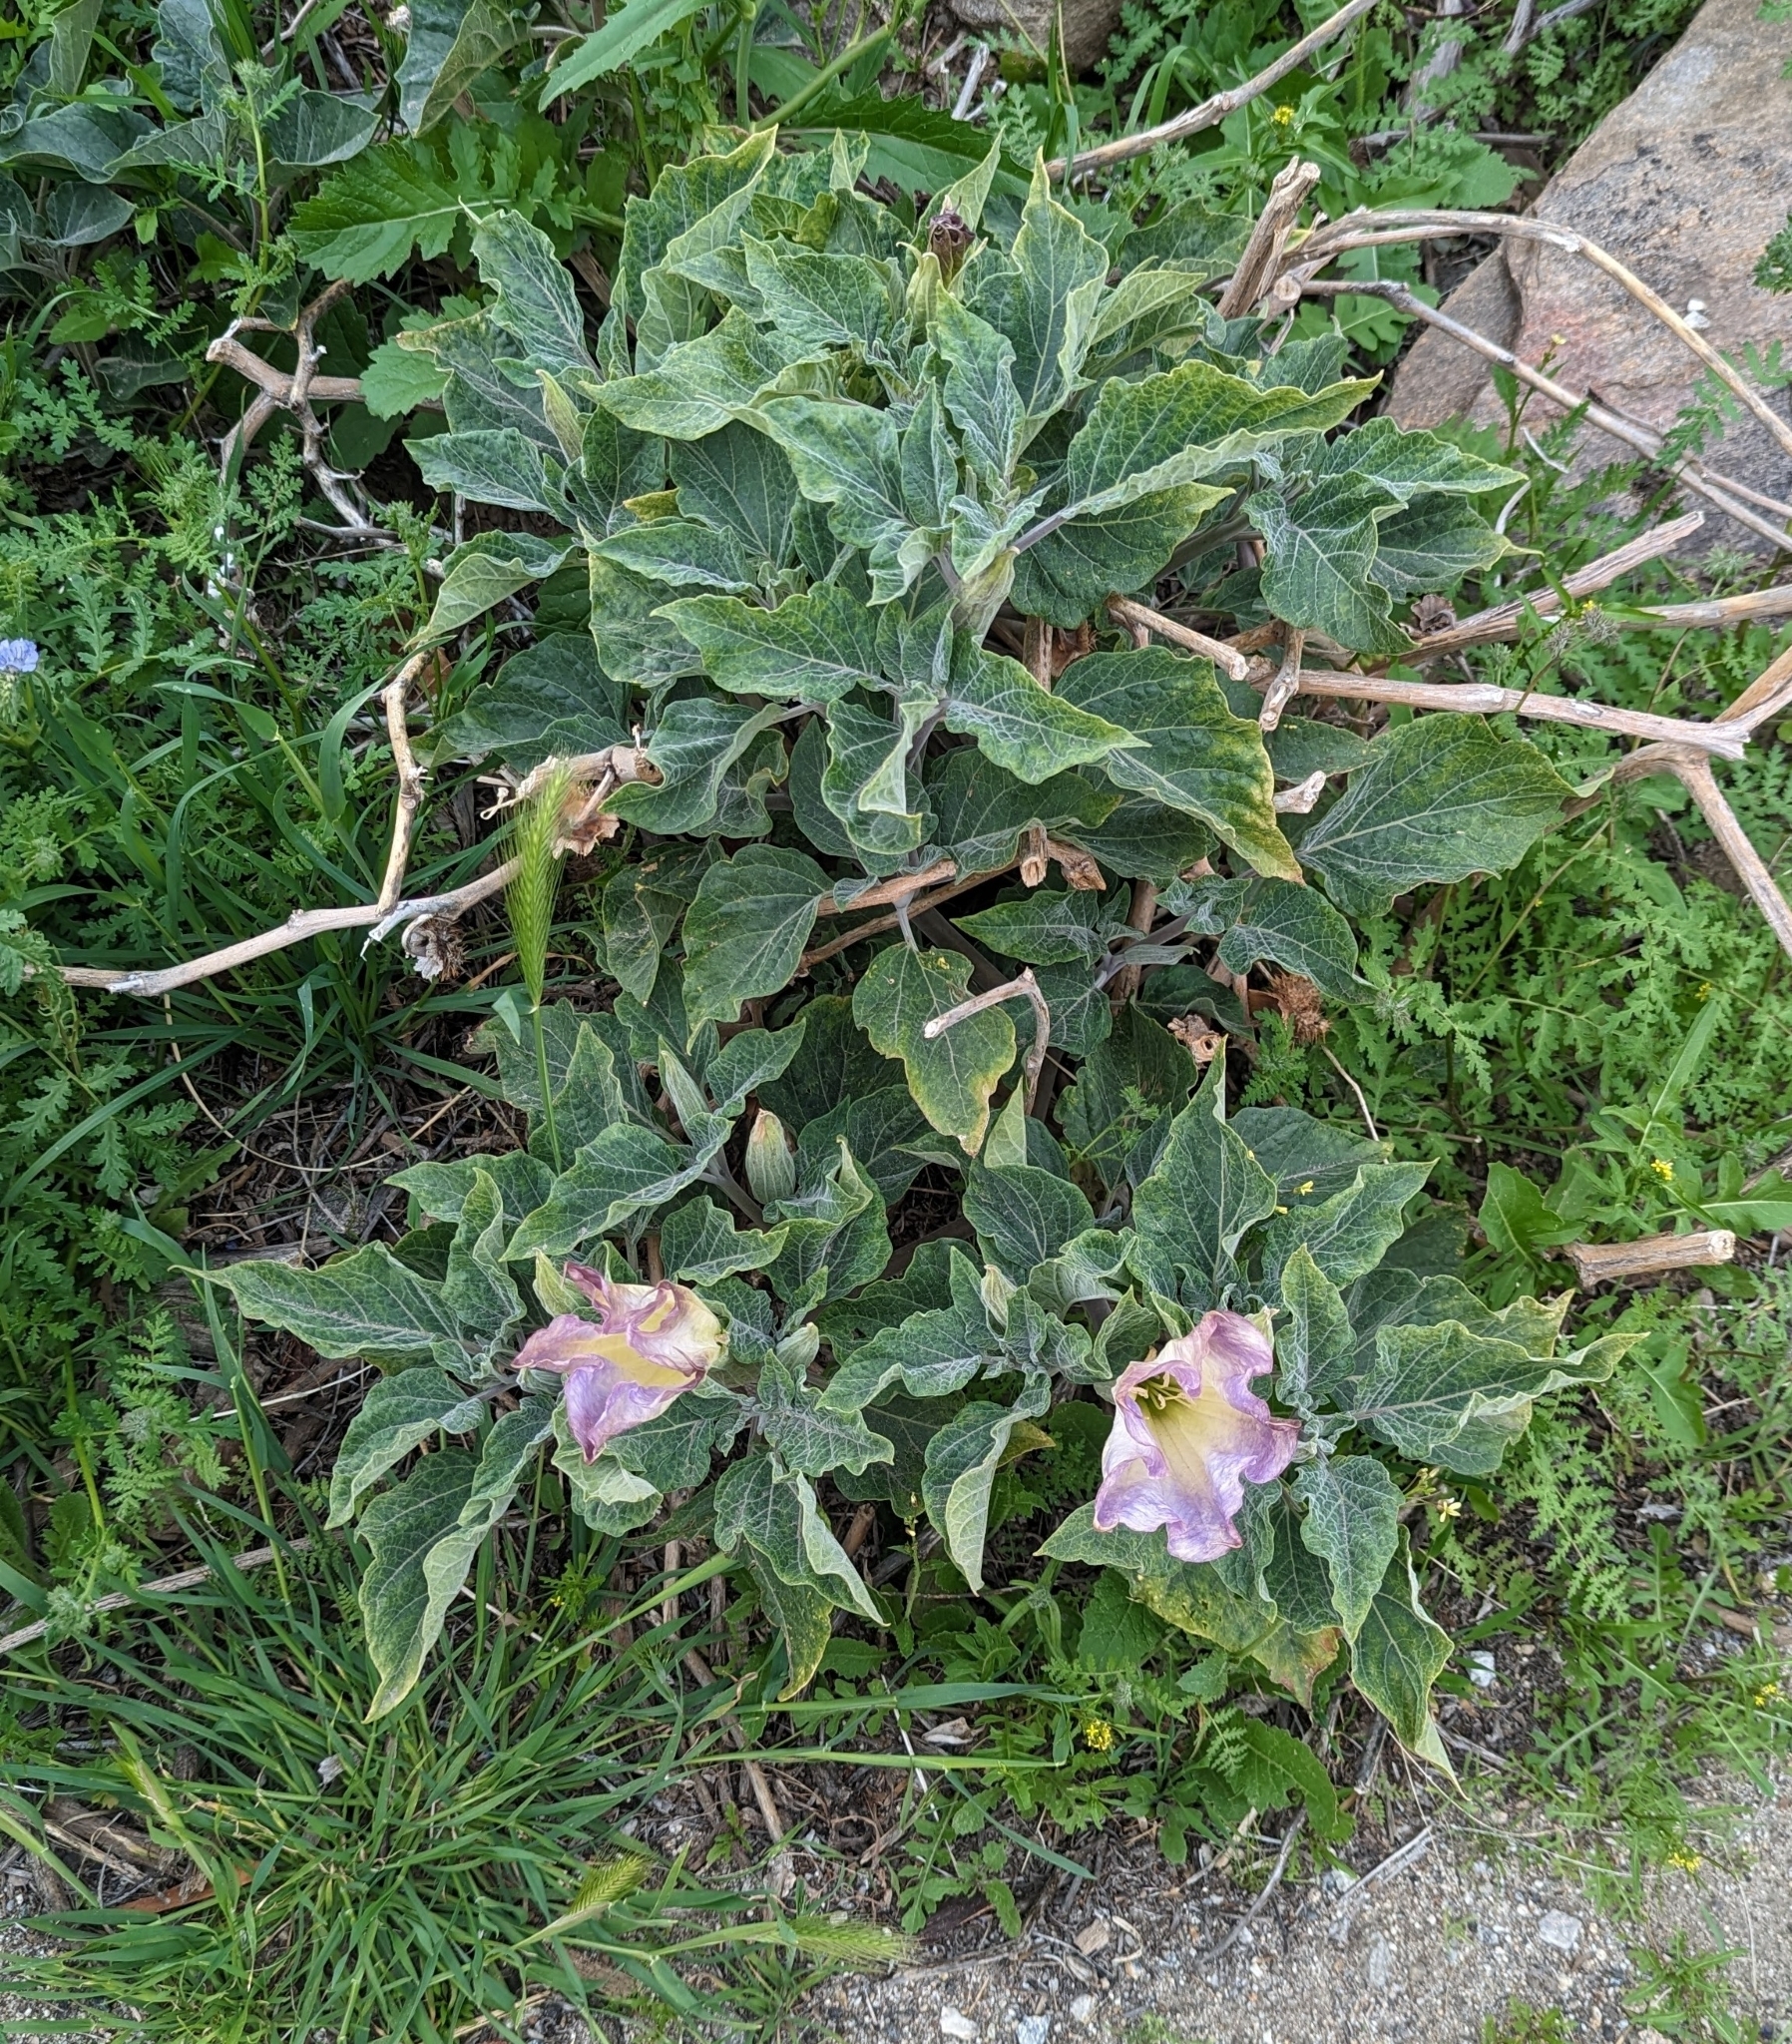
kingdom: Plantae
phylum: Tracheophyta
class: Magnoliopsida
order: Solanales
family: Solanaceae
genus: Datura
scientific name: Datura wrightii
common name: Sacred thorn-apple
